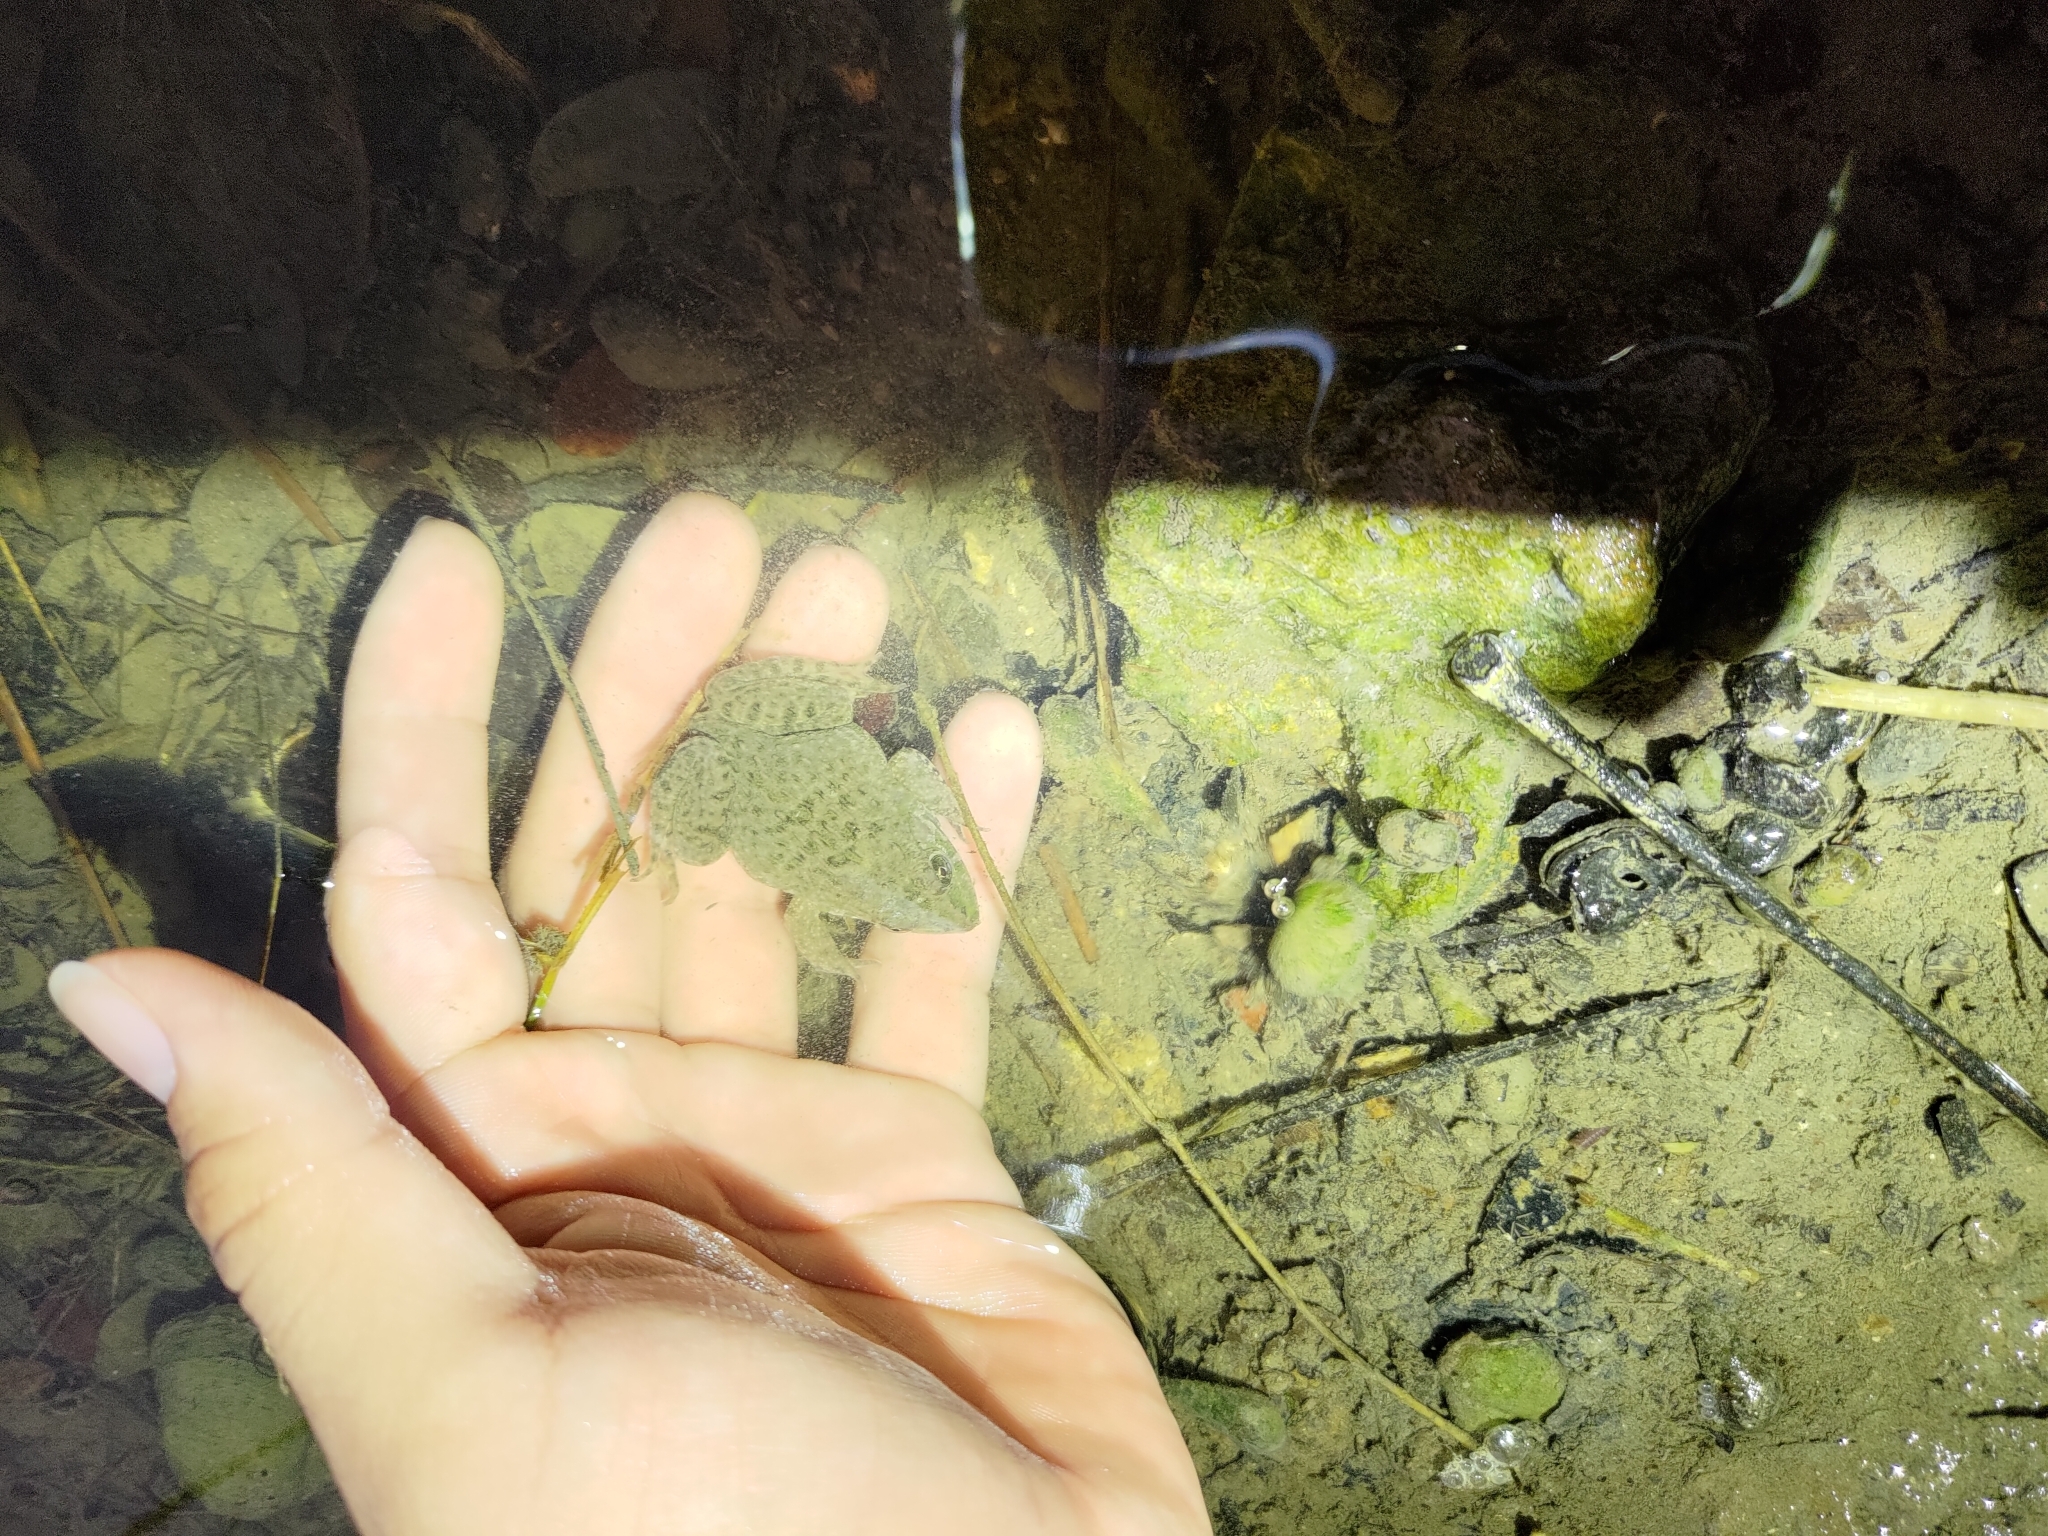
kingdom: Animalia
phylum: Chordata
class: Amphibia
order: Anura
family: Dicroglossidae
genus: Hoplobatrachus
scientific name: Hoplobatrachus rugulosus
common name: Chinese edible frog
